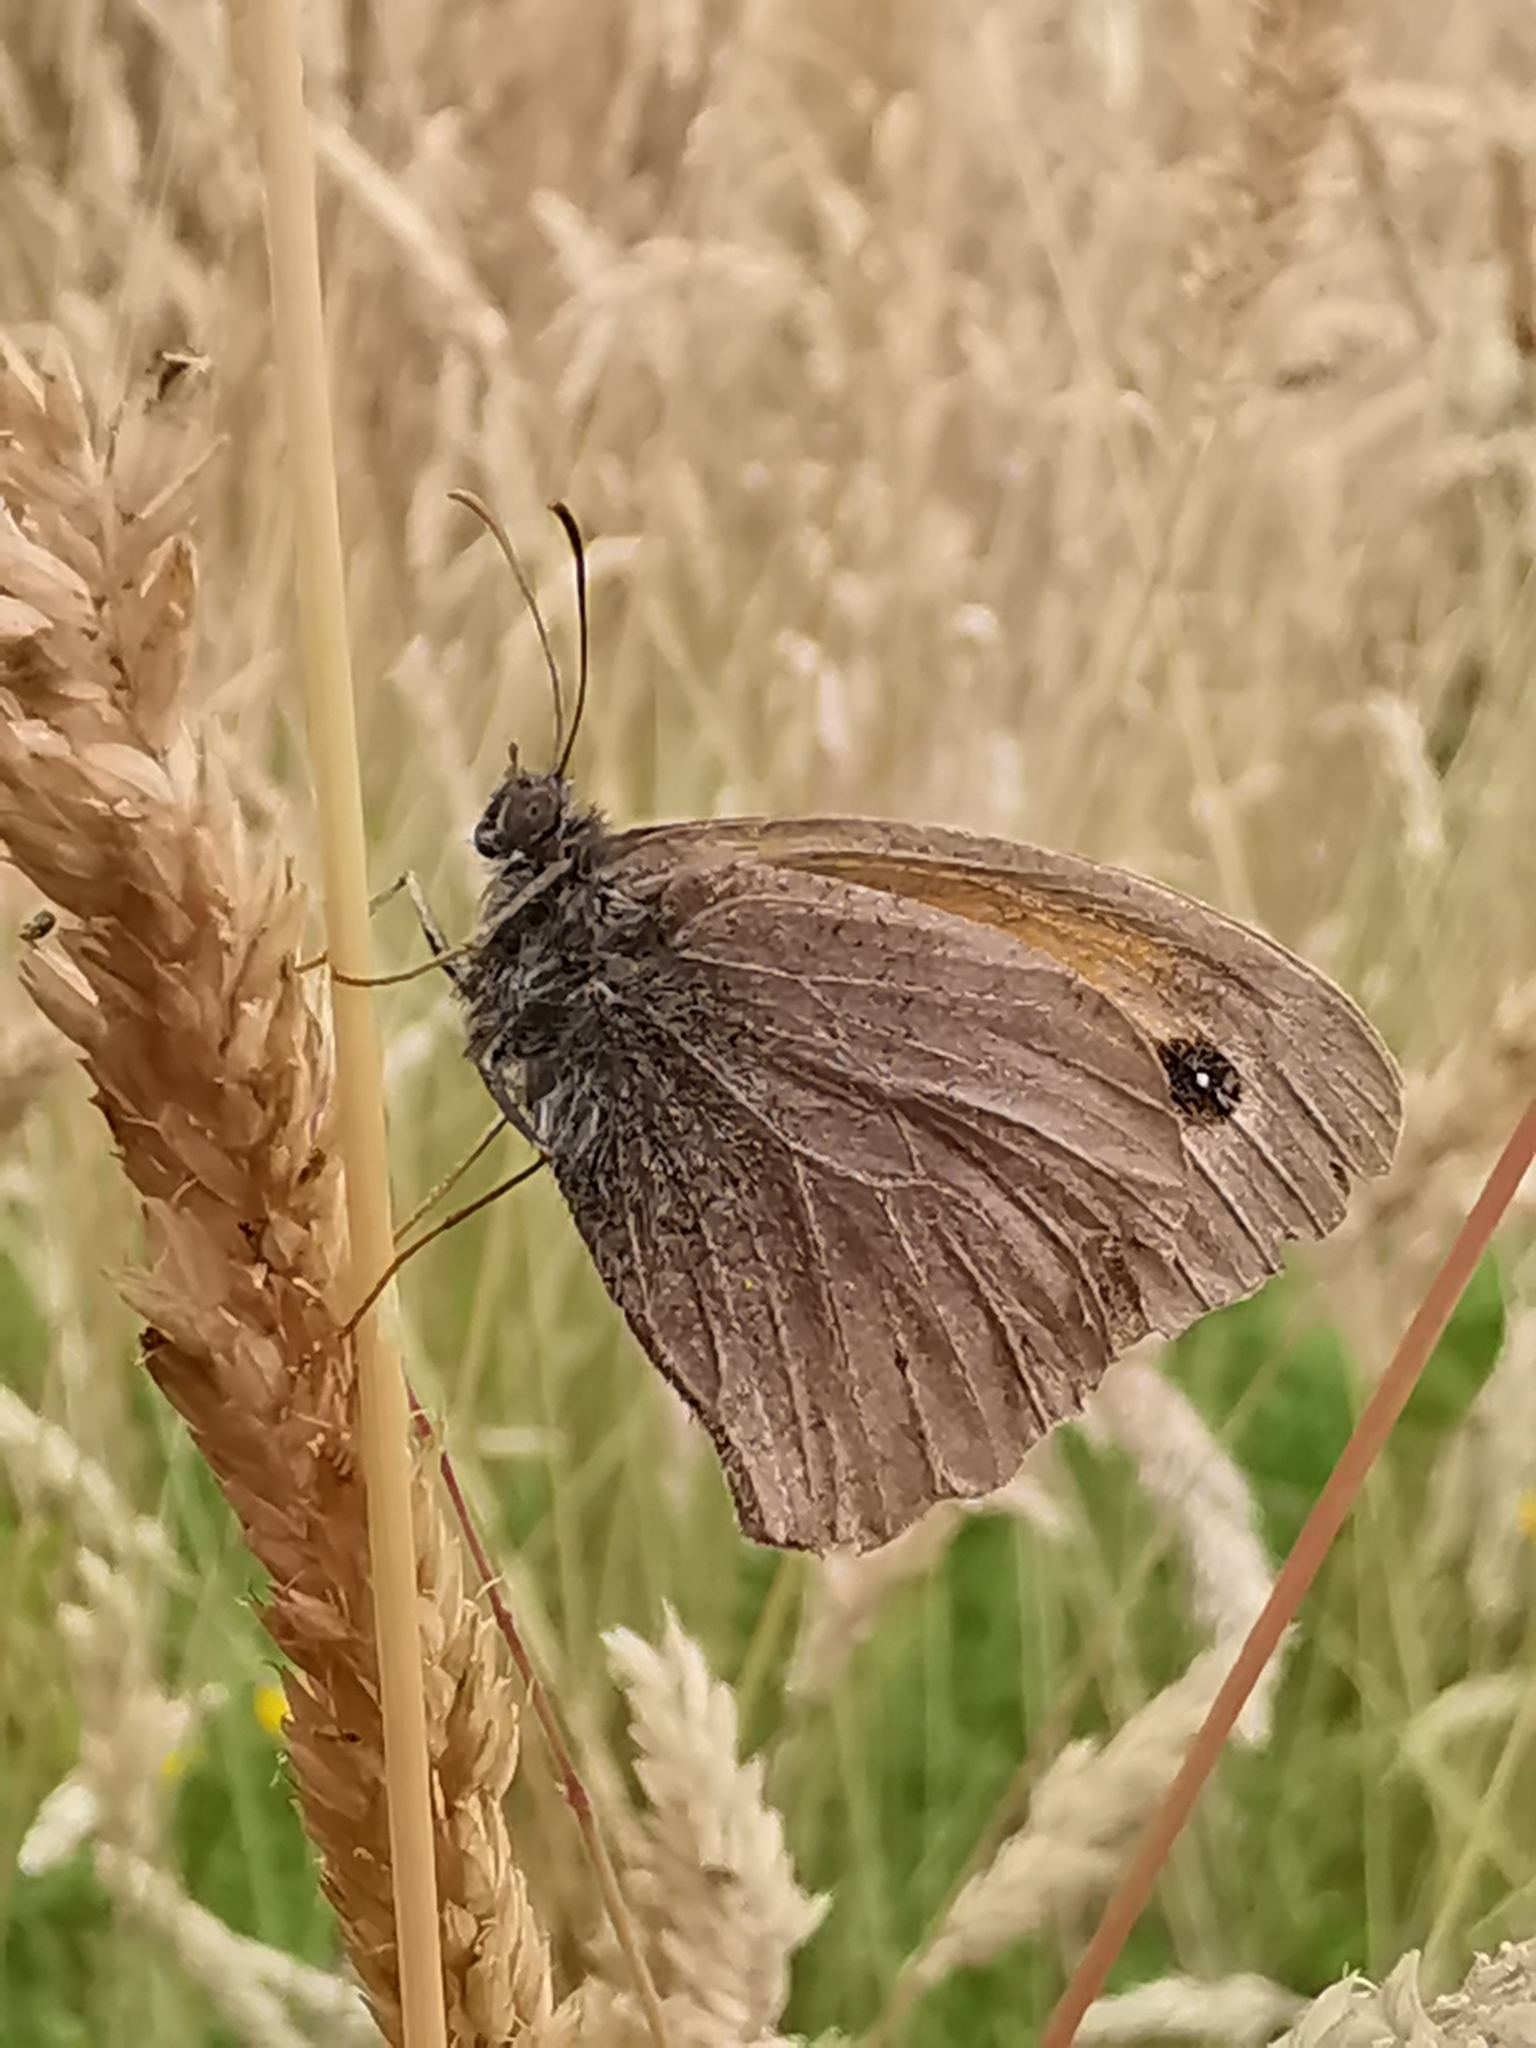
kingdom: Animalia
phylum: Arthropoda
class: Insecta
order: Lepidoptera
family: Nymphalidae
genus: Maniola
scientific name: Maniola jurtina
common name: Meadow brown
